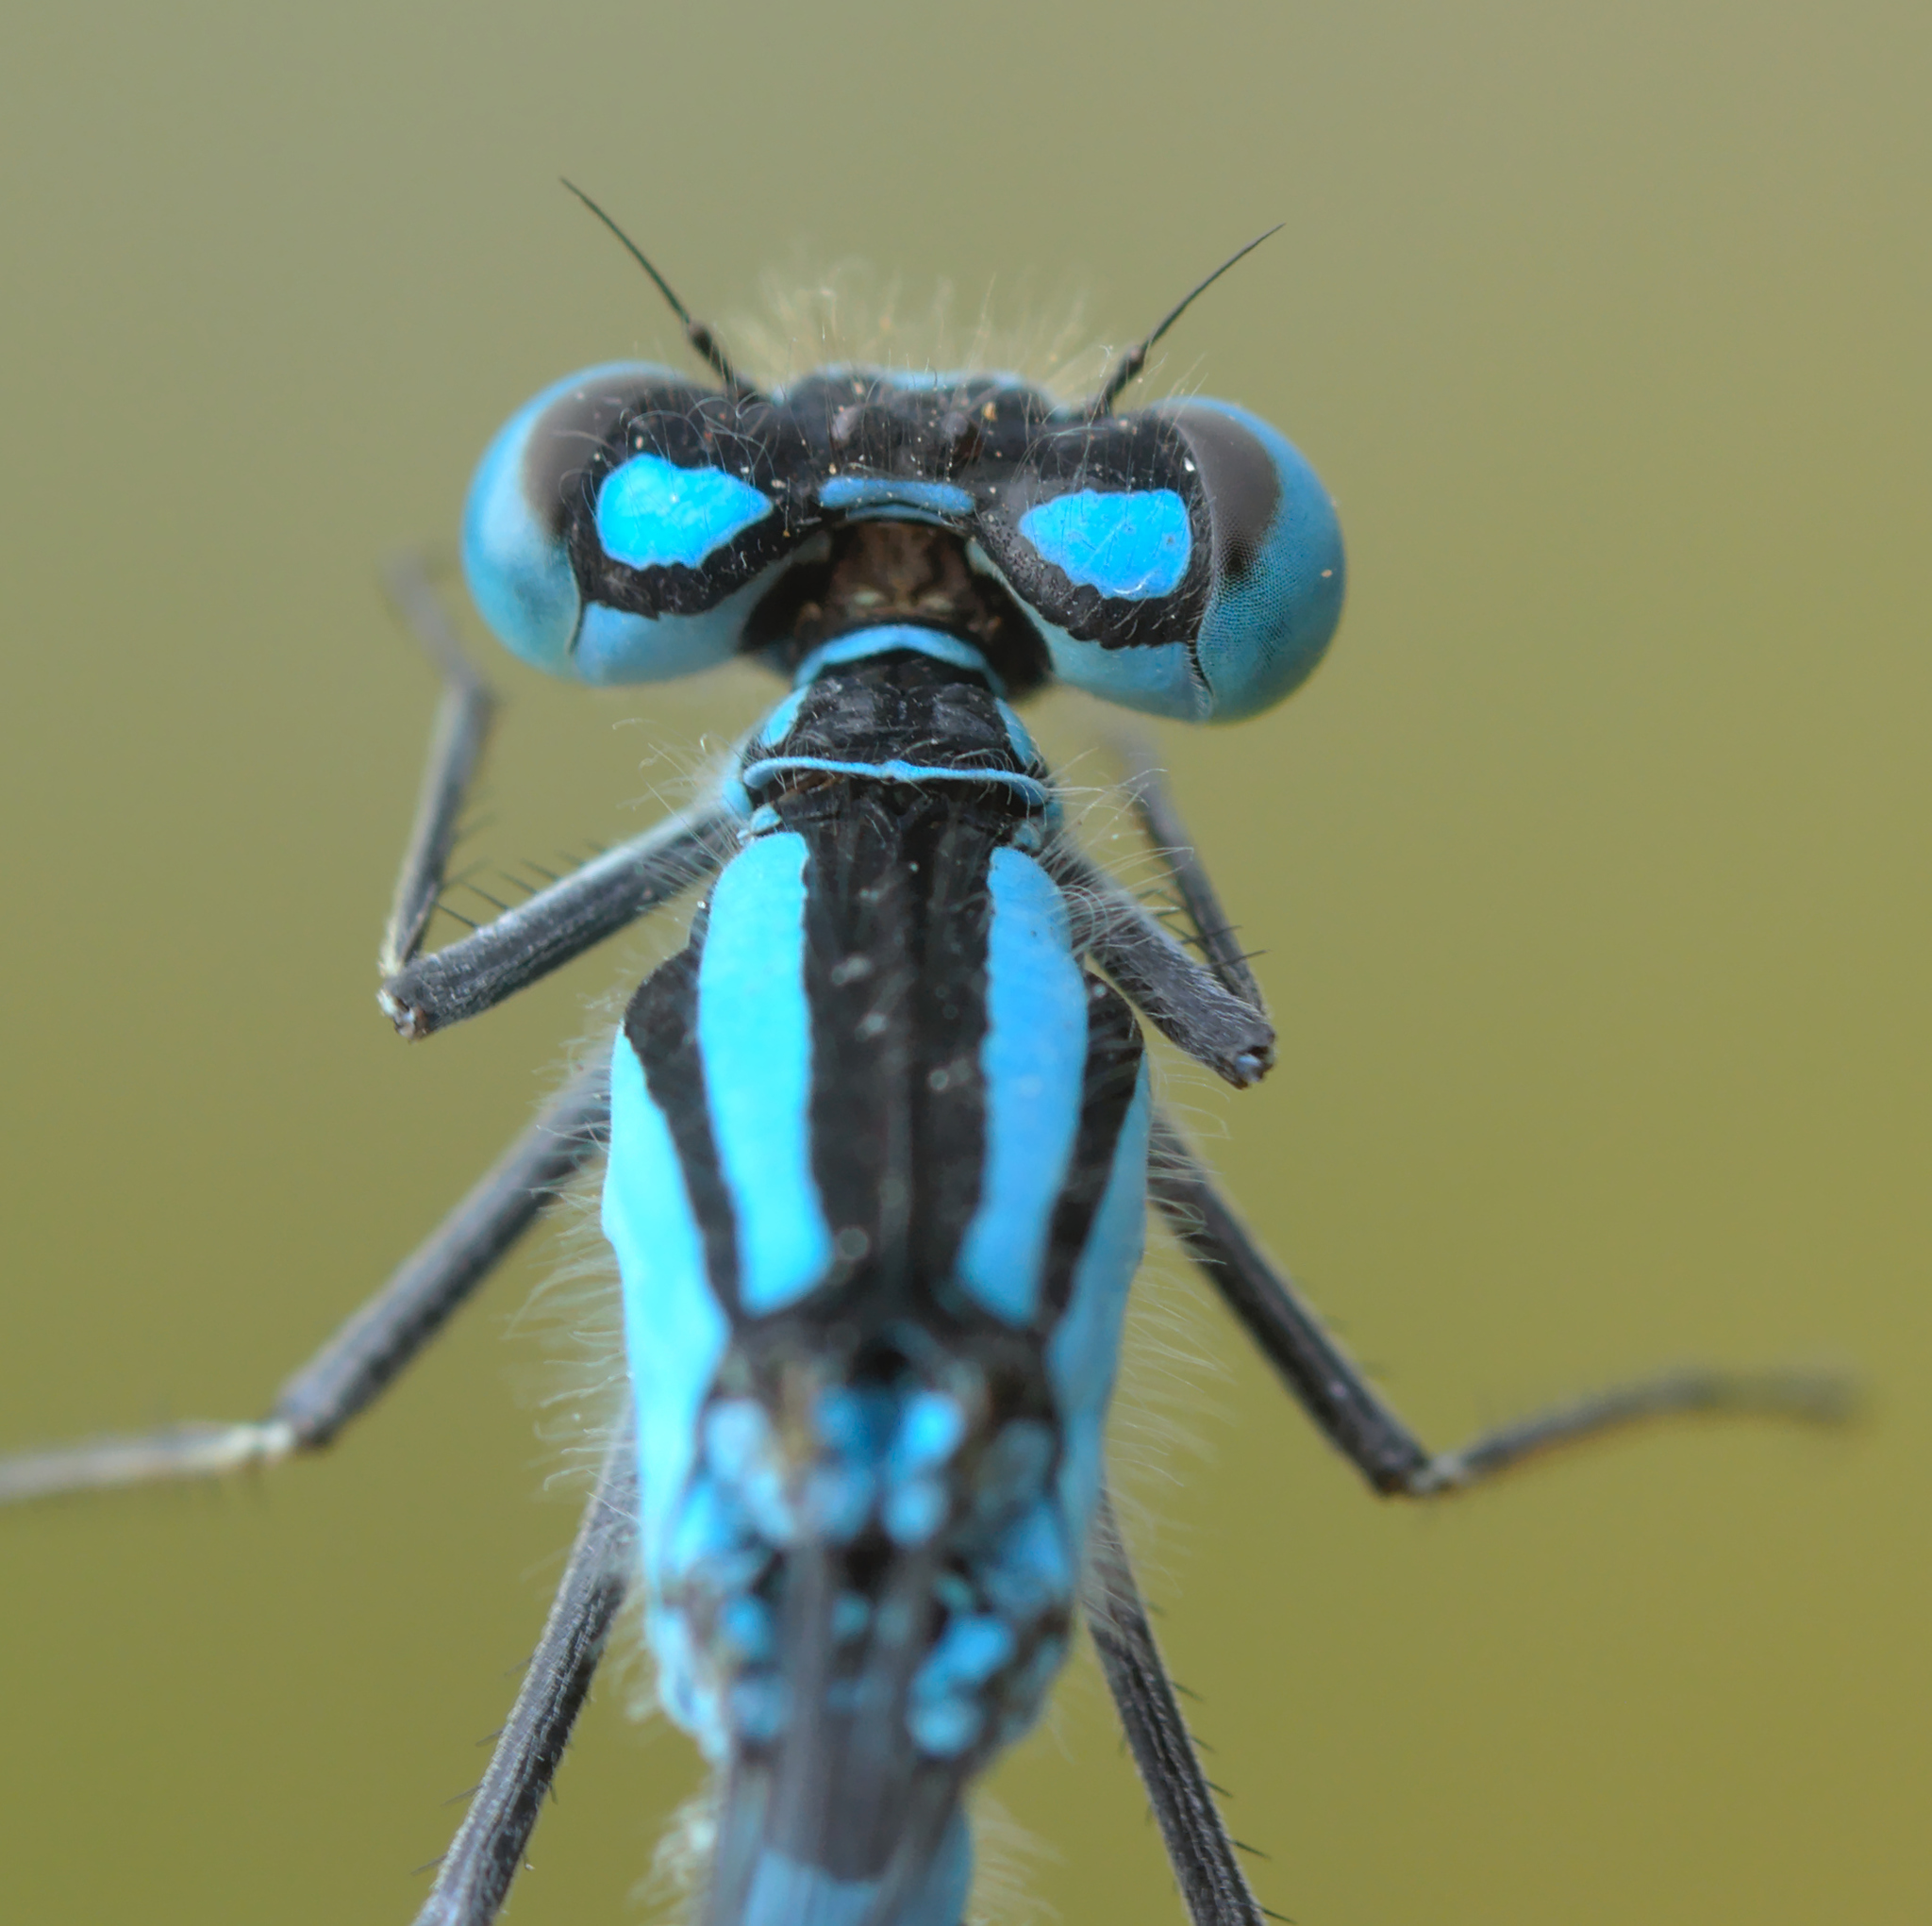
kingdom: Animalia
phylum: Arthropoda
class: Insecta
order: Odonata
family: Coenagrionidae
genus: Enallagma
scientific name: Enallagma cyathigerum
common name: Common blue damselfly
